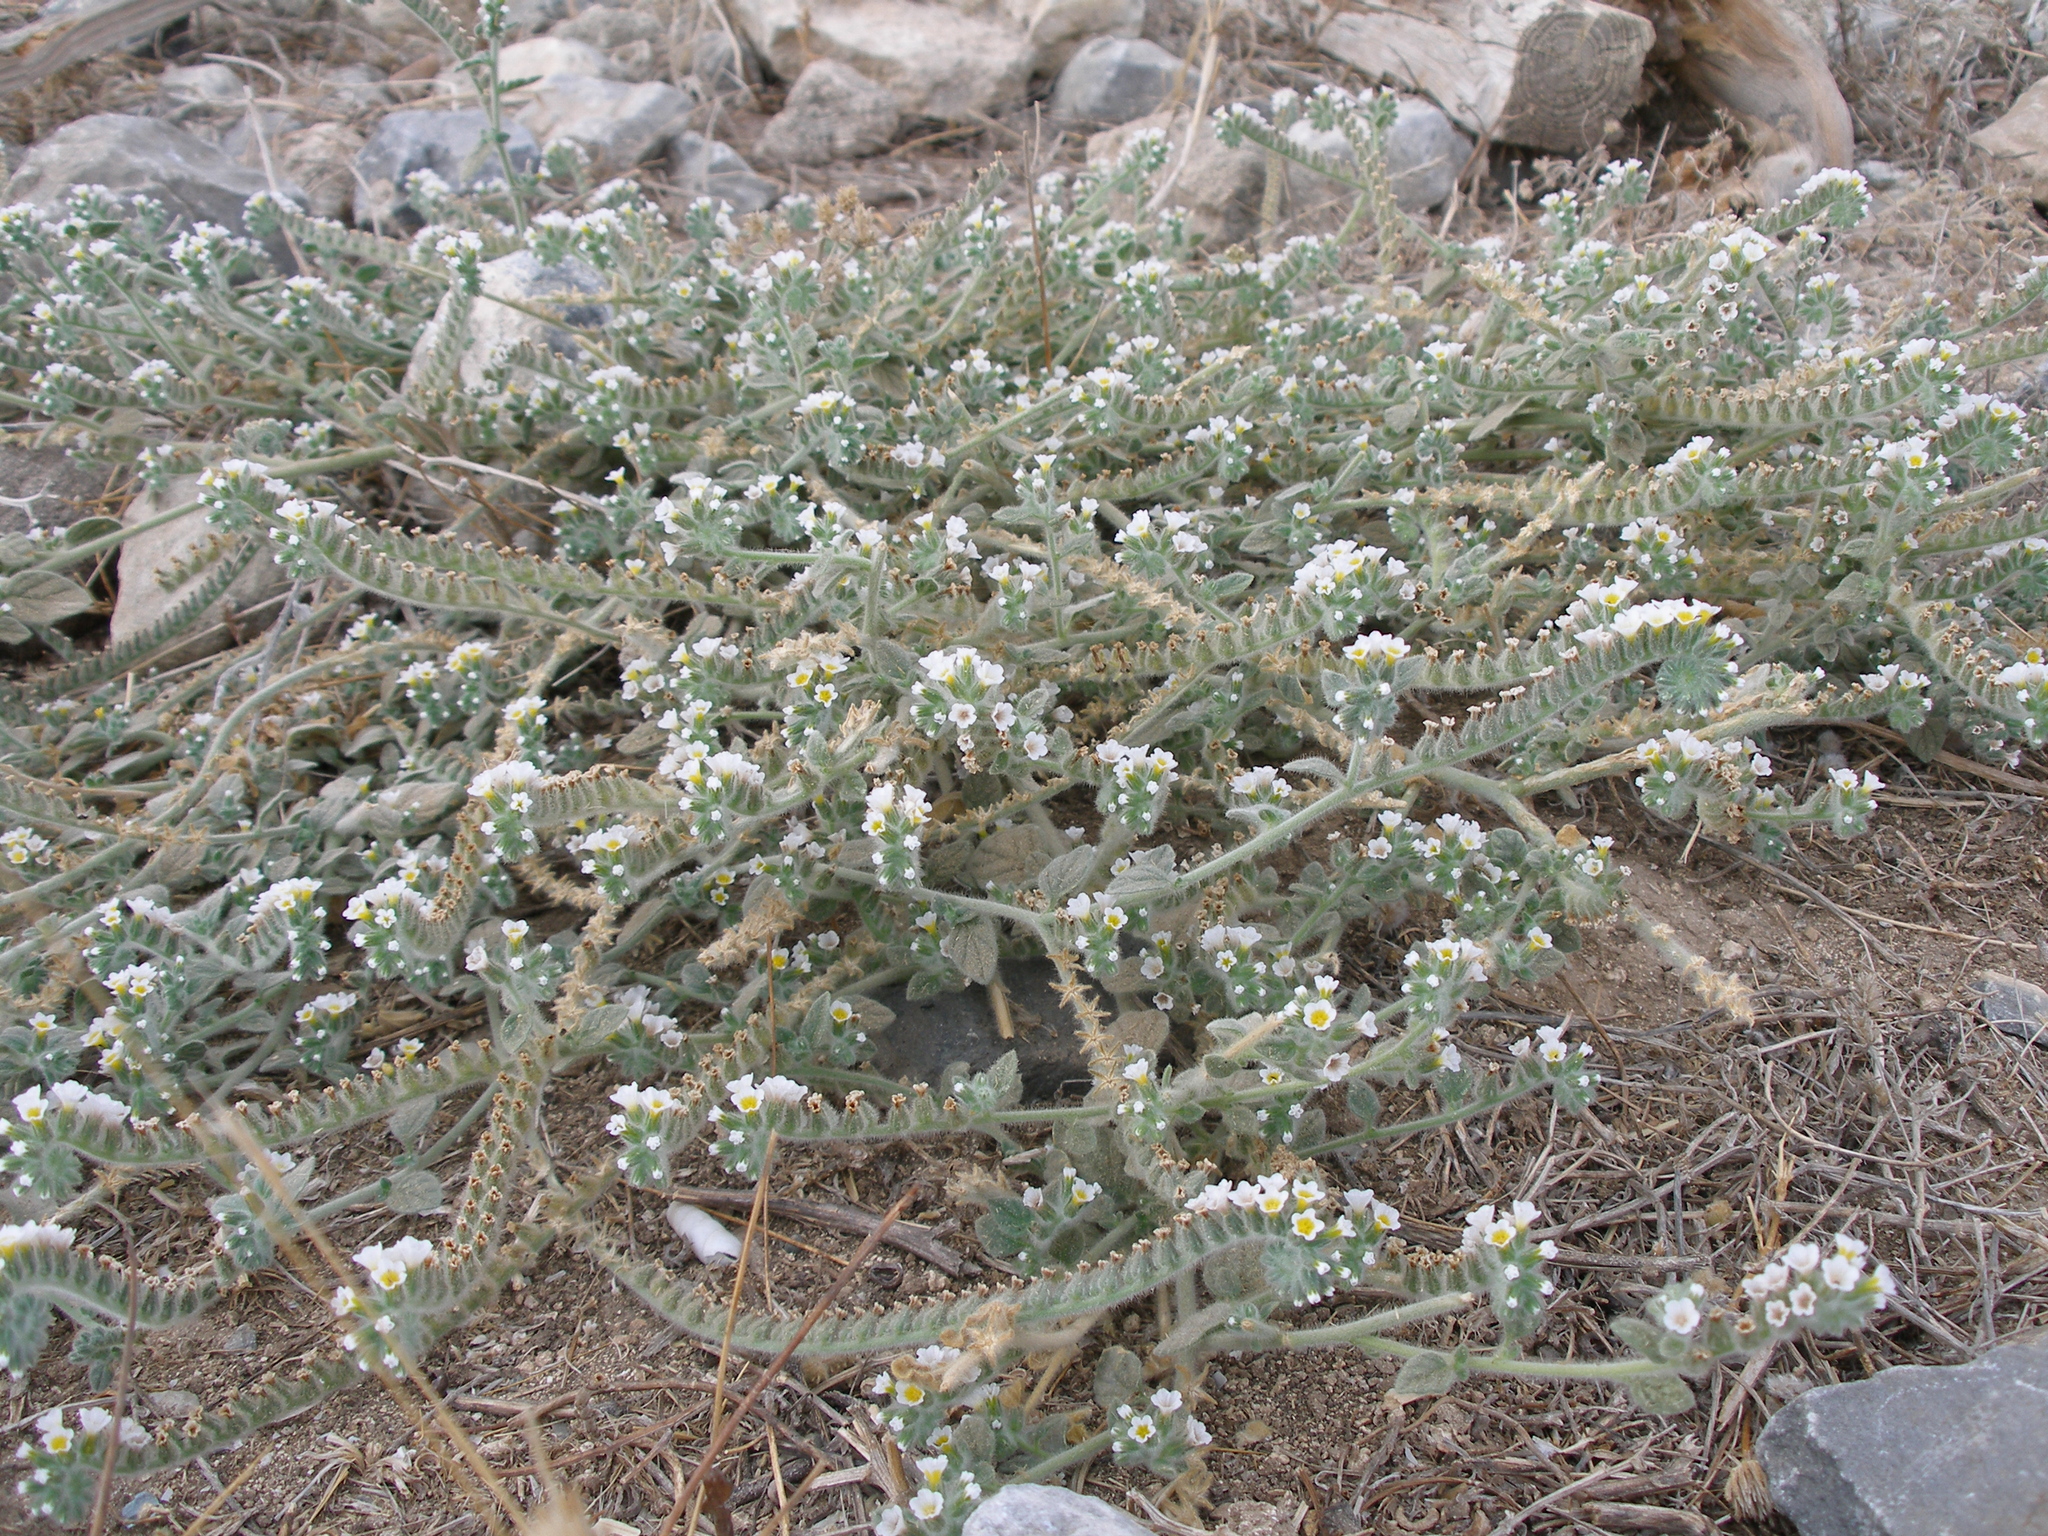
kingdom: Plantae
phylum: Tracheophyta
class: Magnoliopsida
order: Boraginales
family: Heliotropiaceae
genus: Heliotropium
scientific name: Heliotropium hirsutissimum
